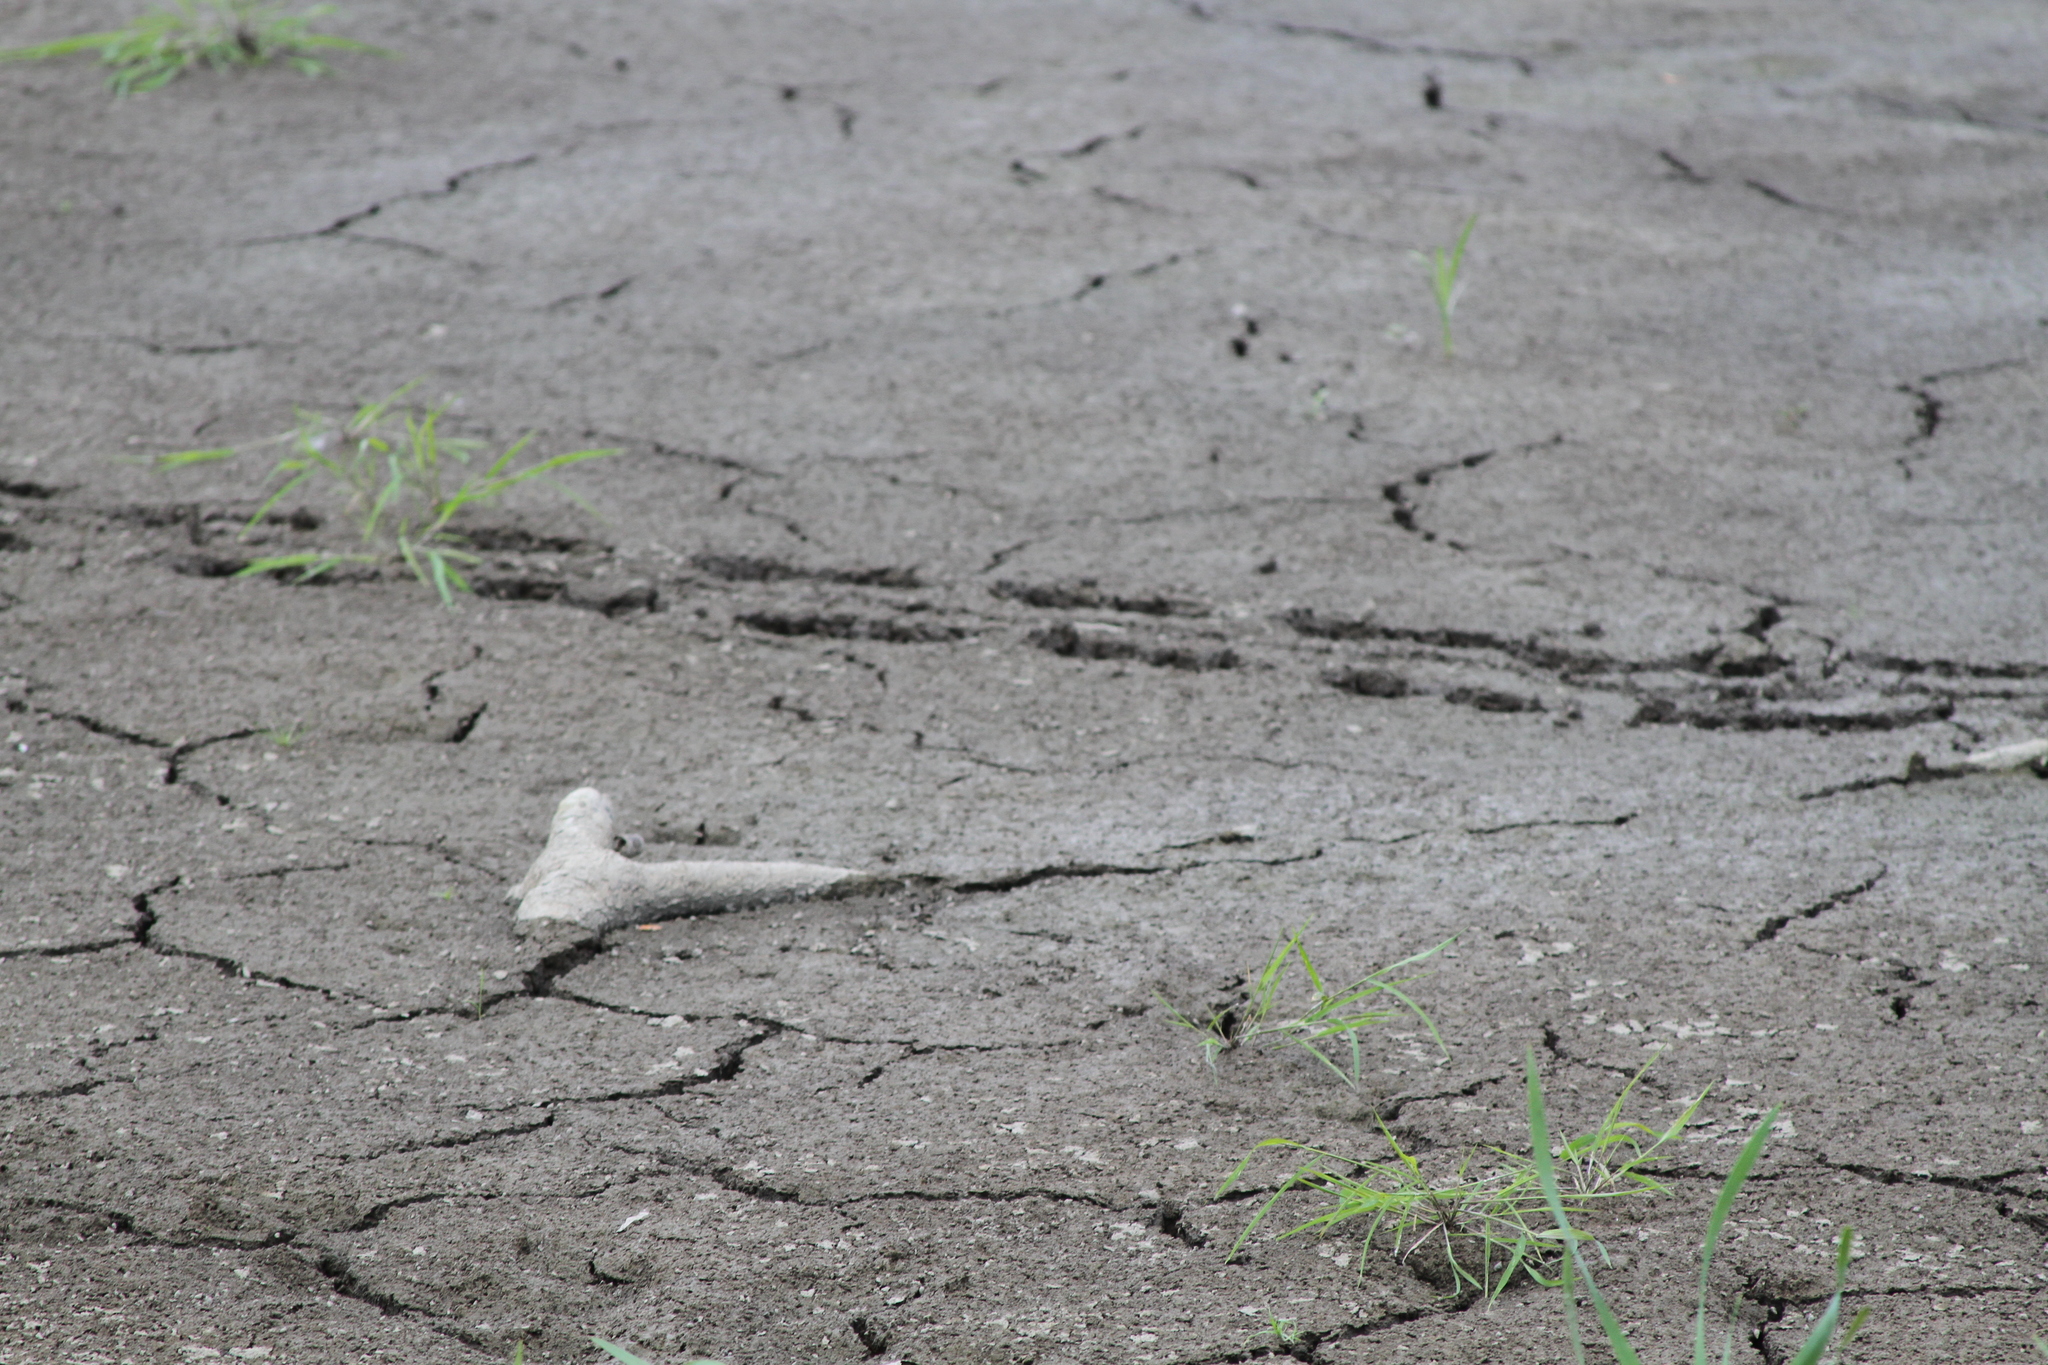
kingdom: Animalia
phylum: Chordata
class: Testudines
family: Chelydridae
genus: Chelydra
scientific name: Chelydra serpentina
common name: Common snapping turtle
